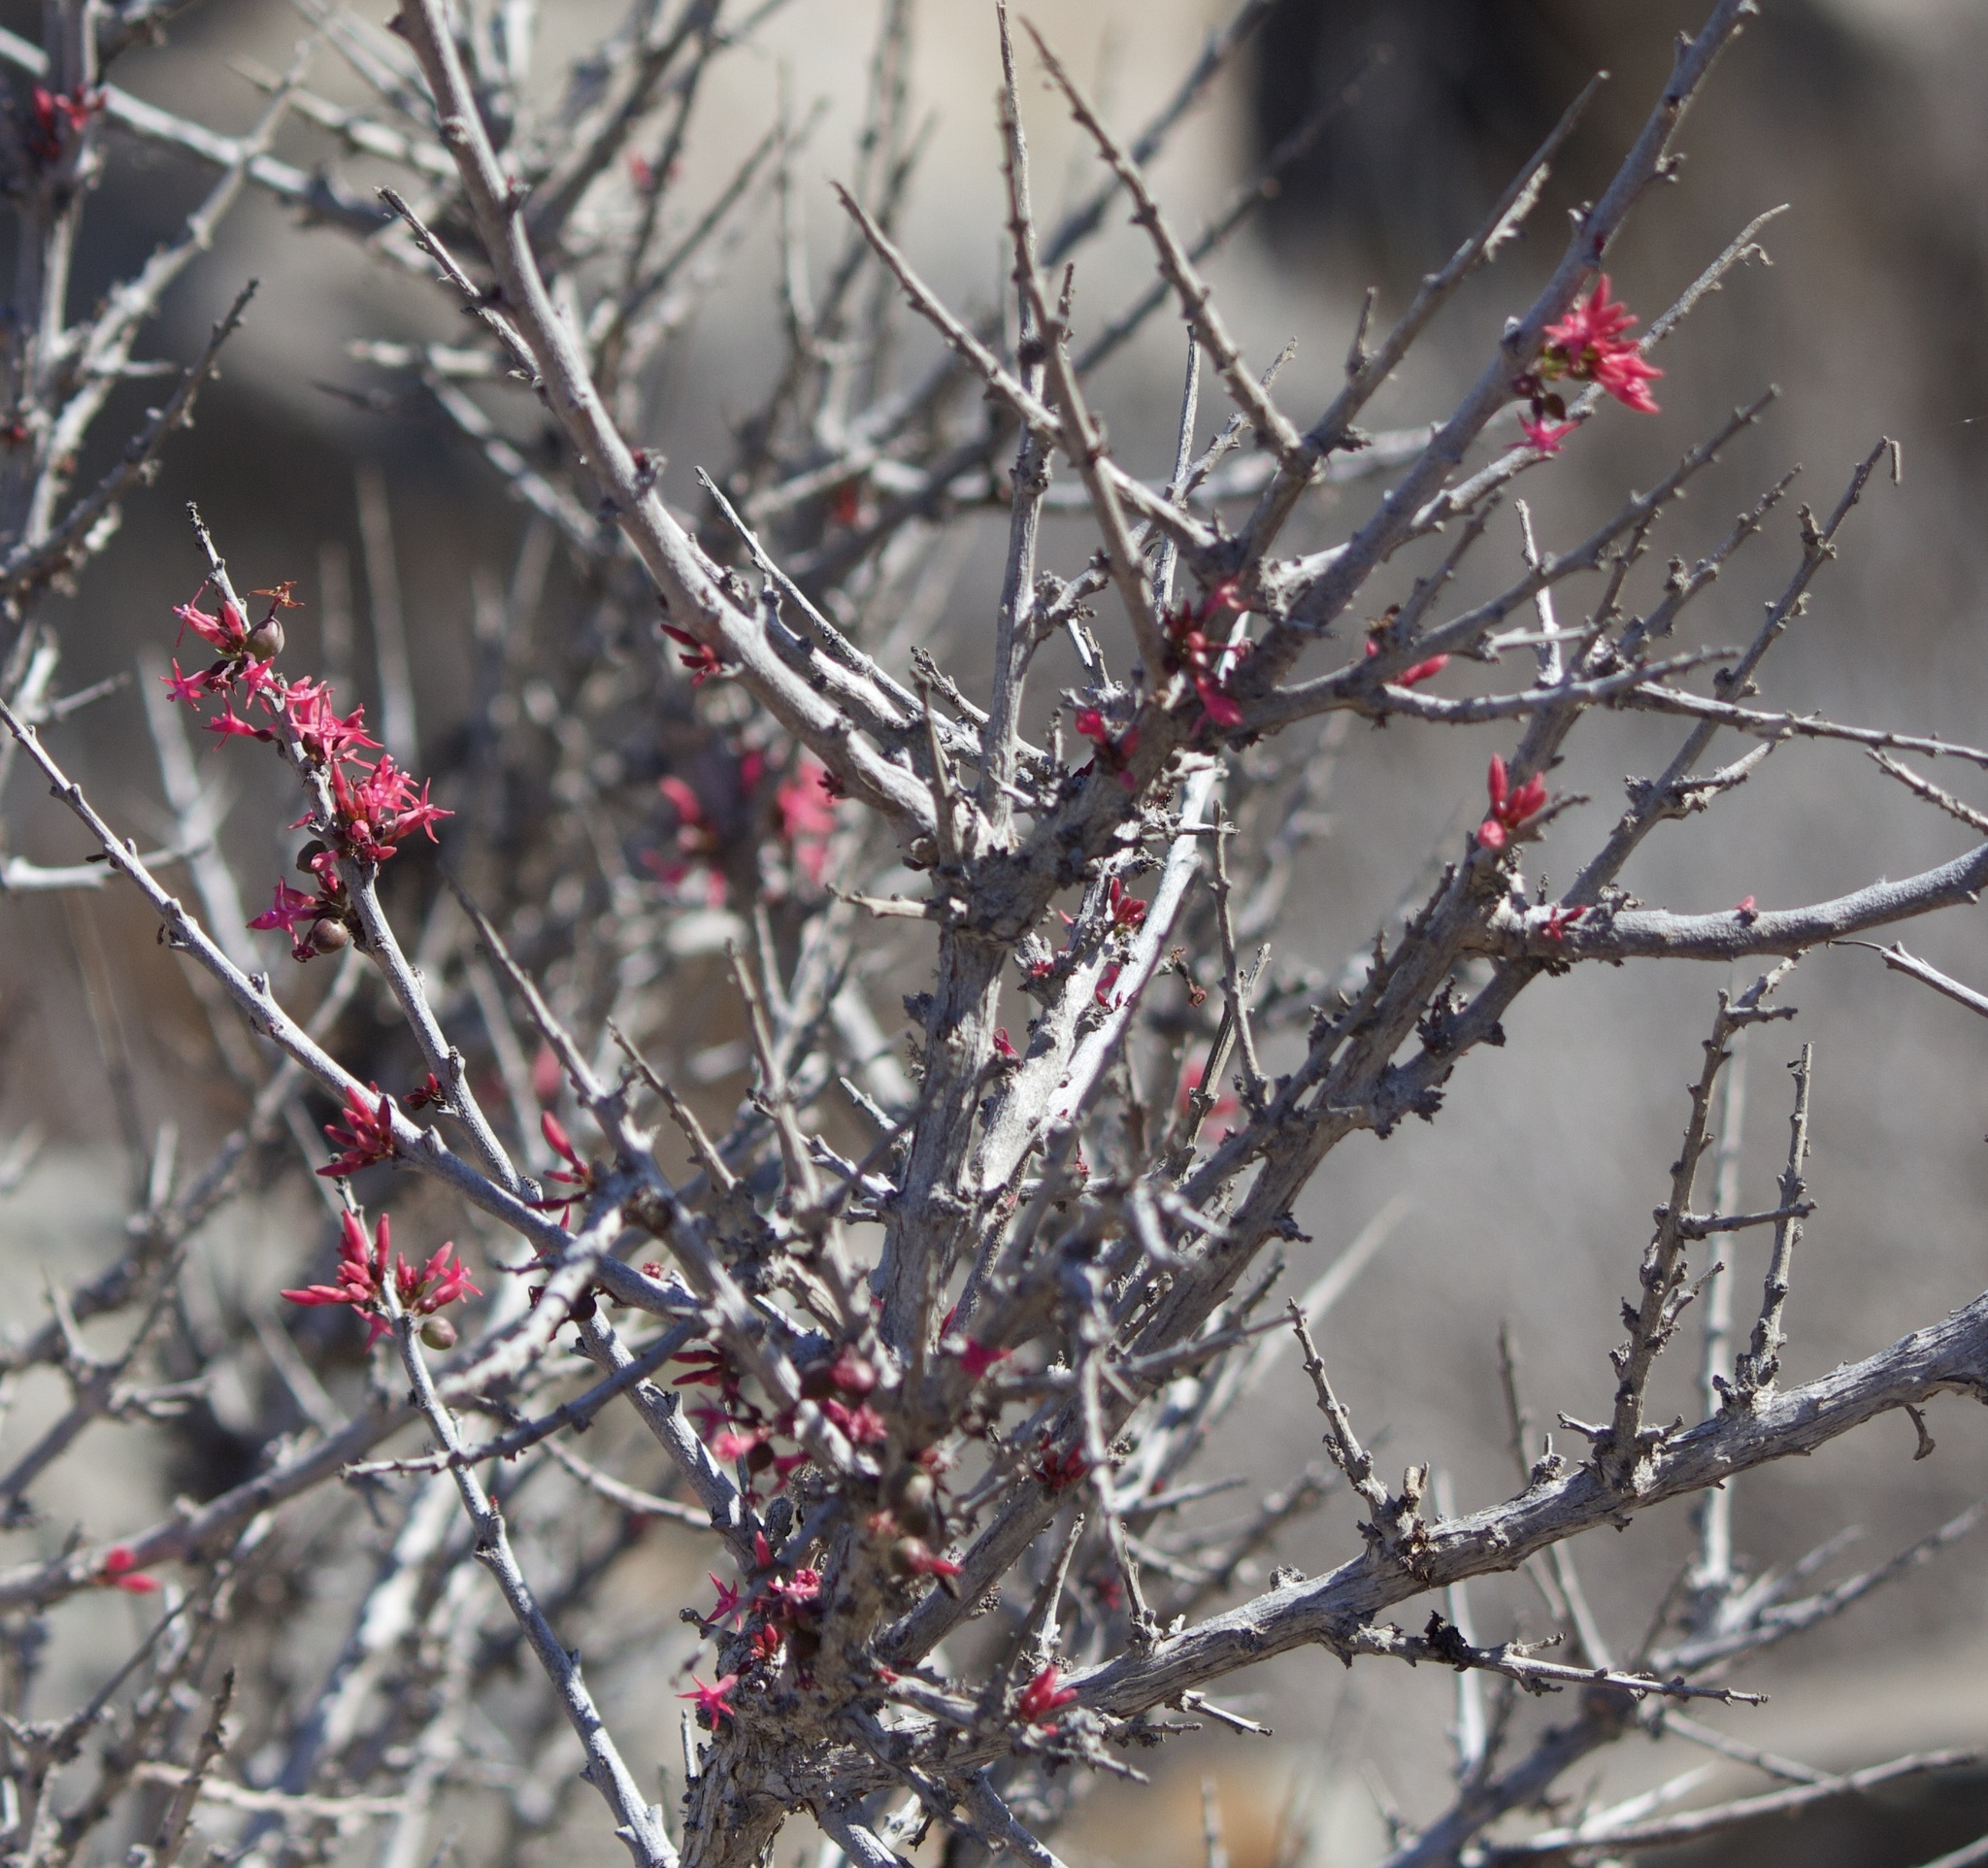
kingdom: Plantae
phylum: Tracheophyta
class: Magnoliopsida
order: Myrtales
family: Onagraceae
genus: Fuchsia
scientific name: Fuchsia lycioides
